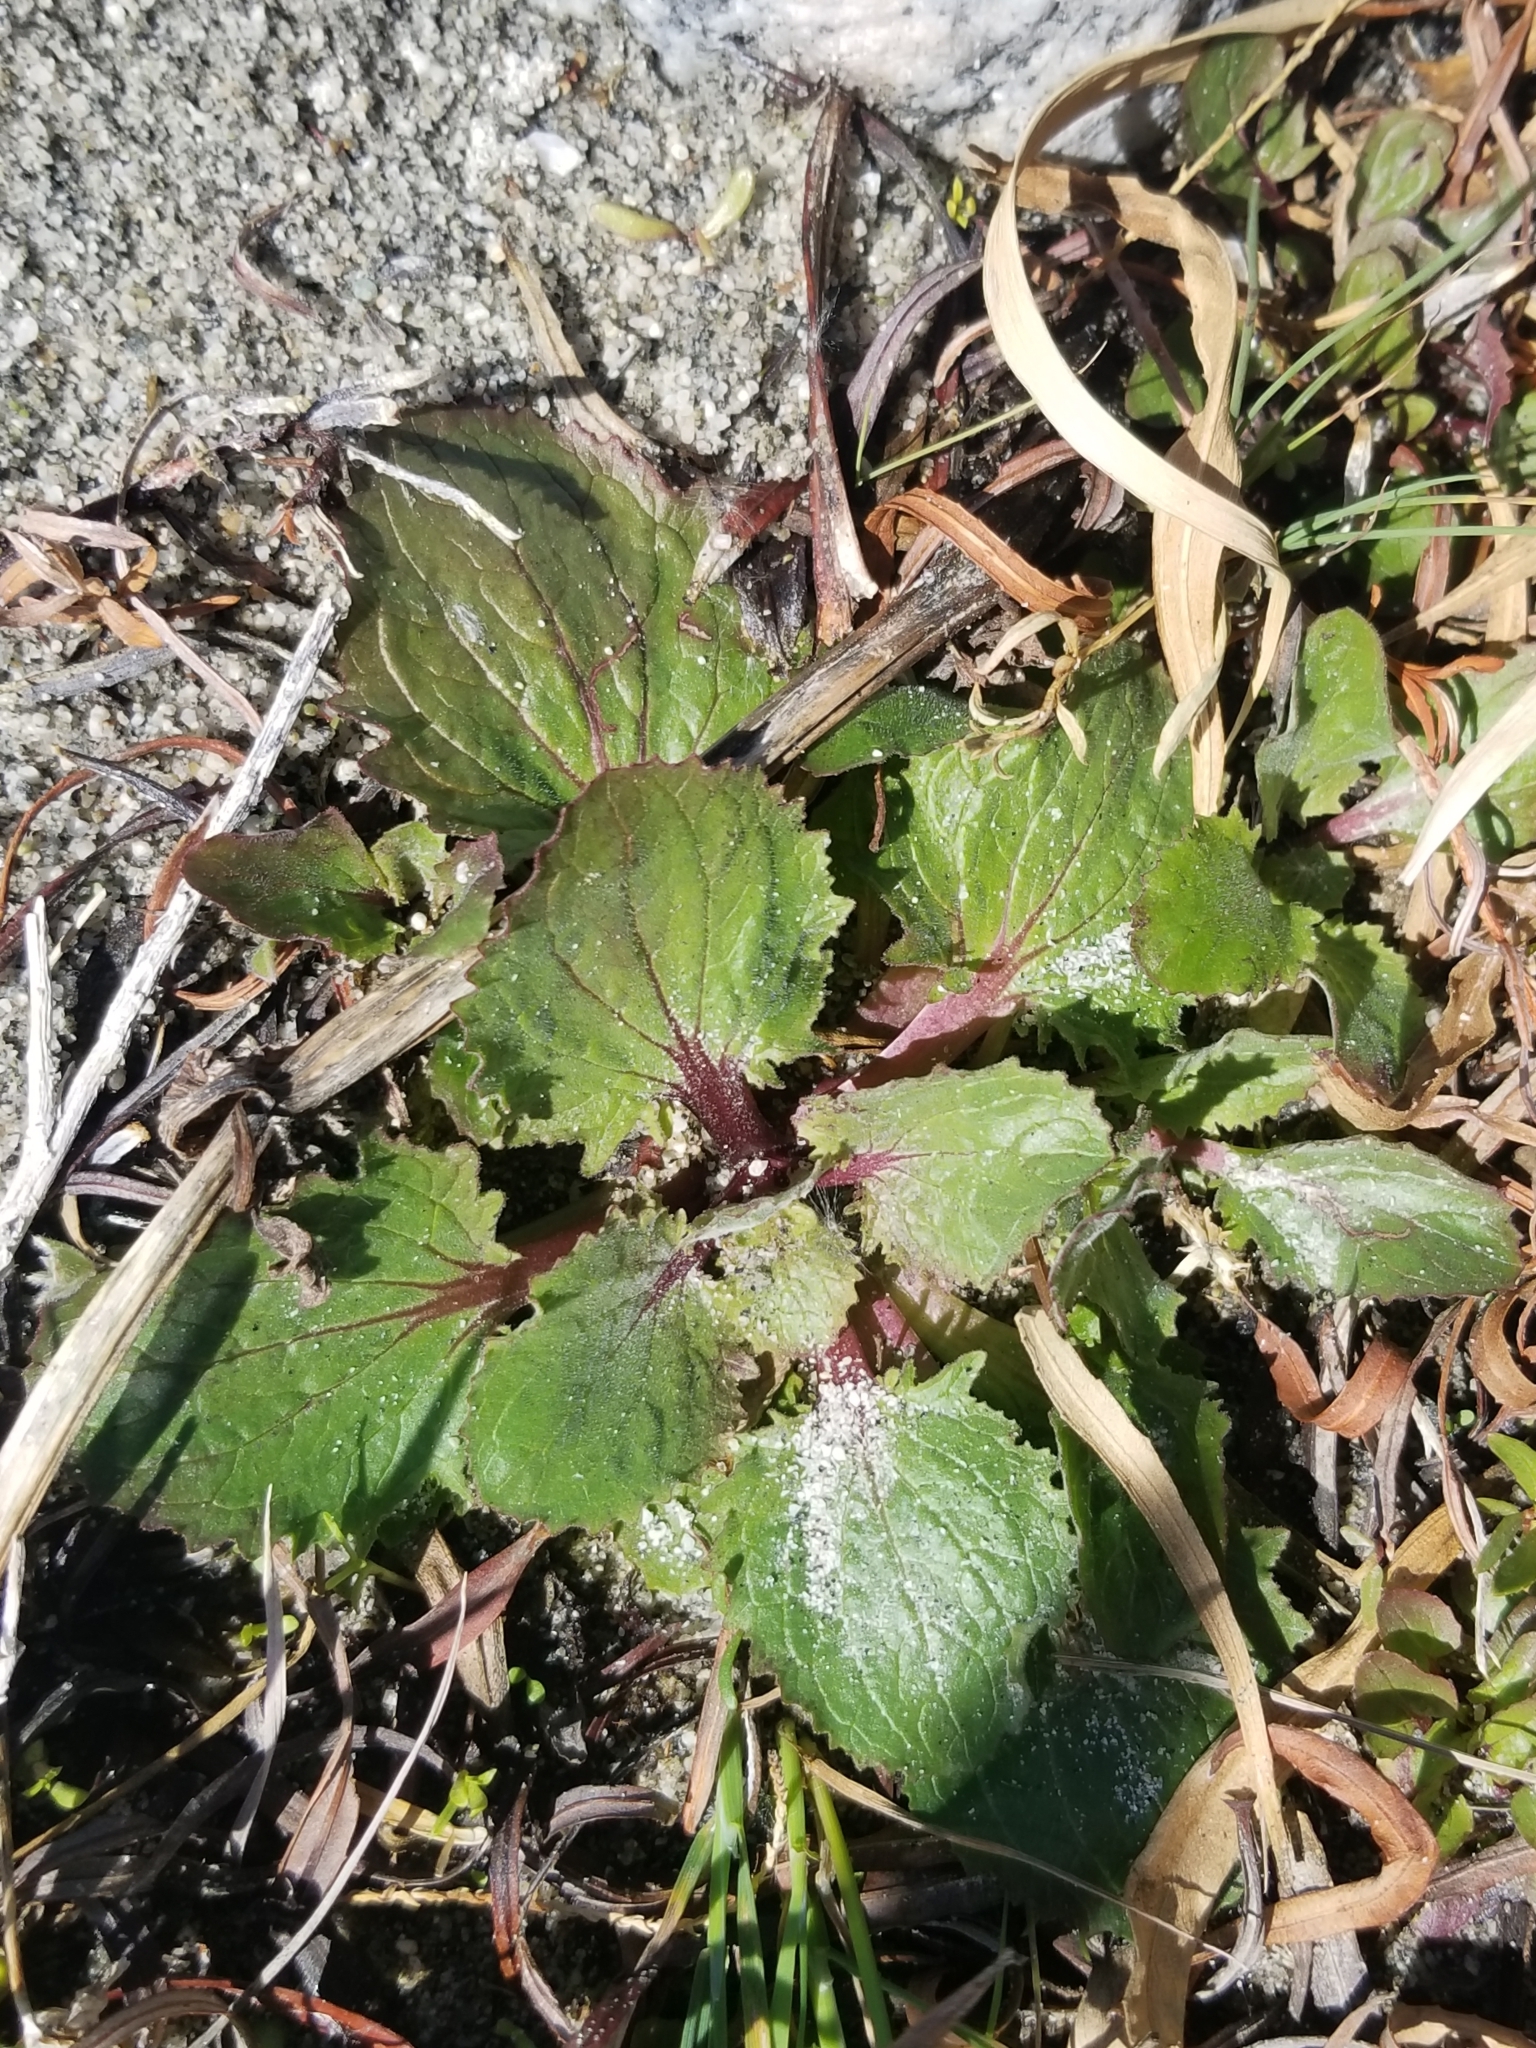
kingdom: Plantae
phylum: Tracheophyta
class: Magnoliopsida
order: Lamiales
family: Phrymaceae
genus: Erythranthe
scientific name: Erythranthe guttata
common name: Monkeyflower
